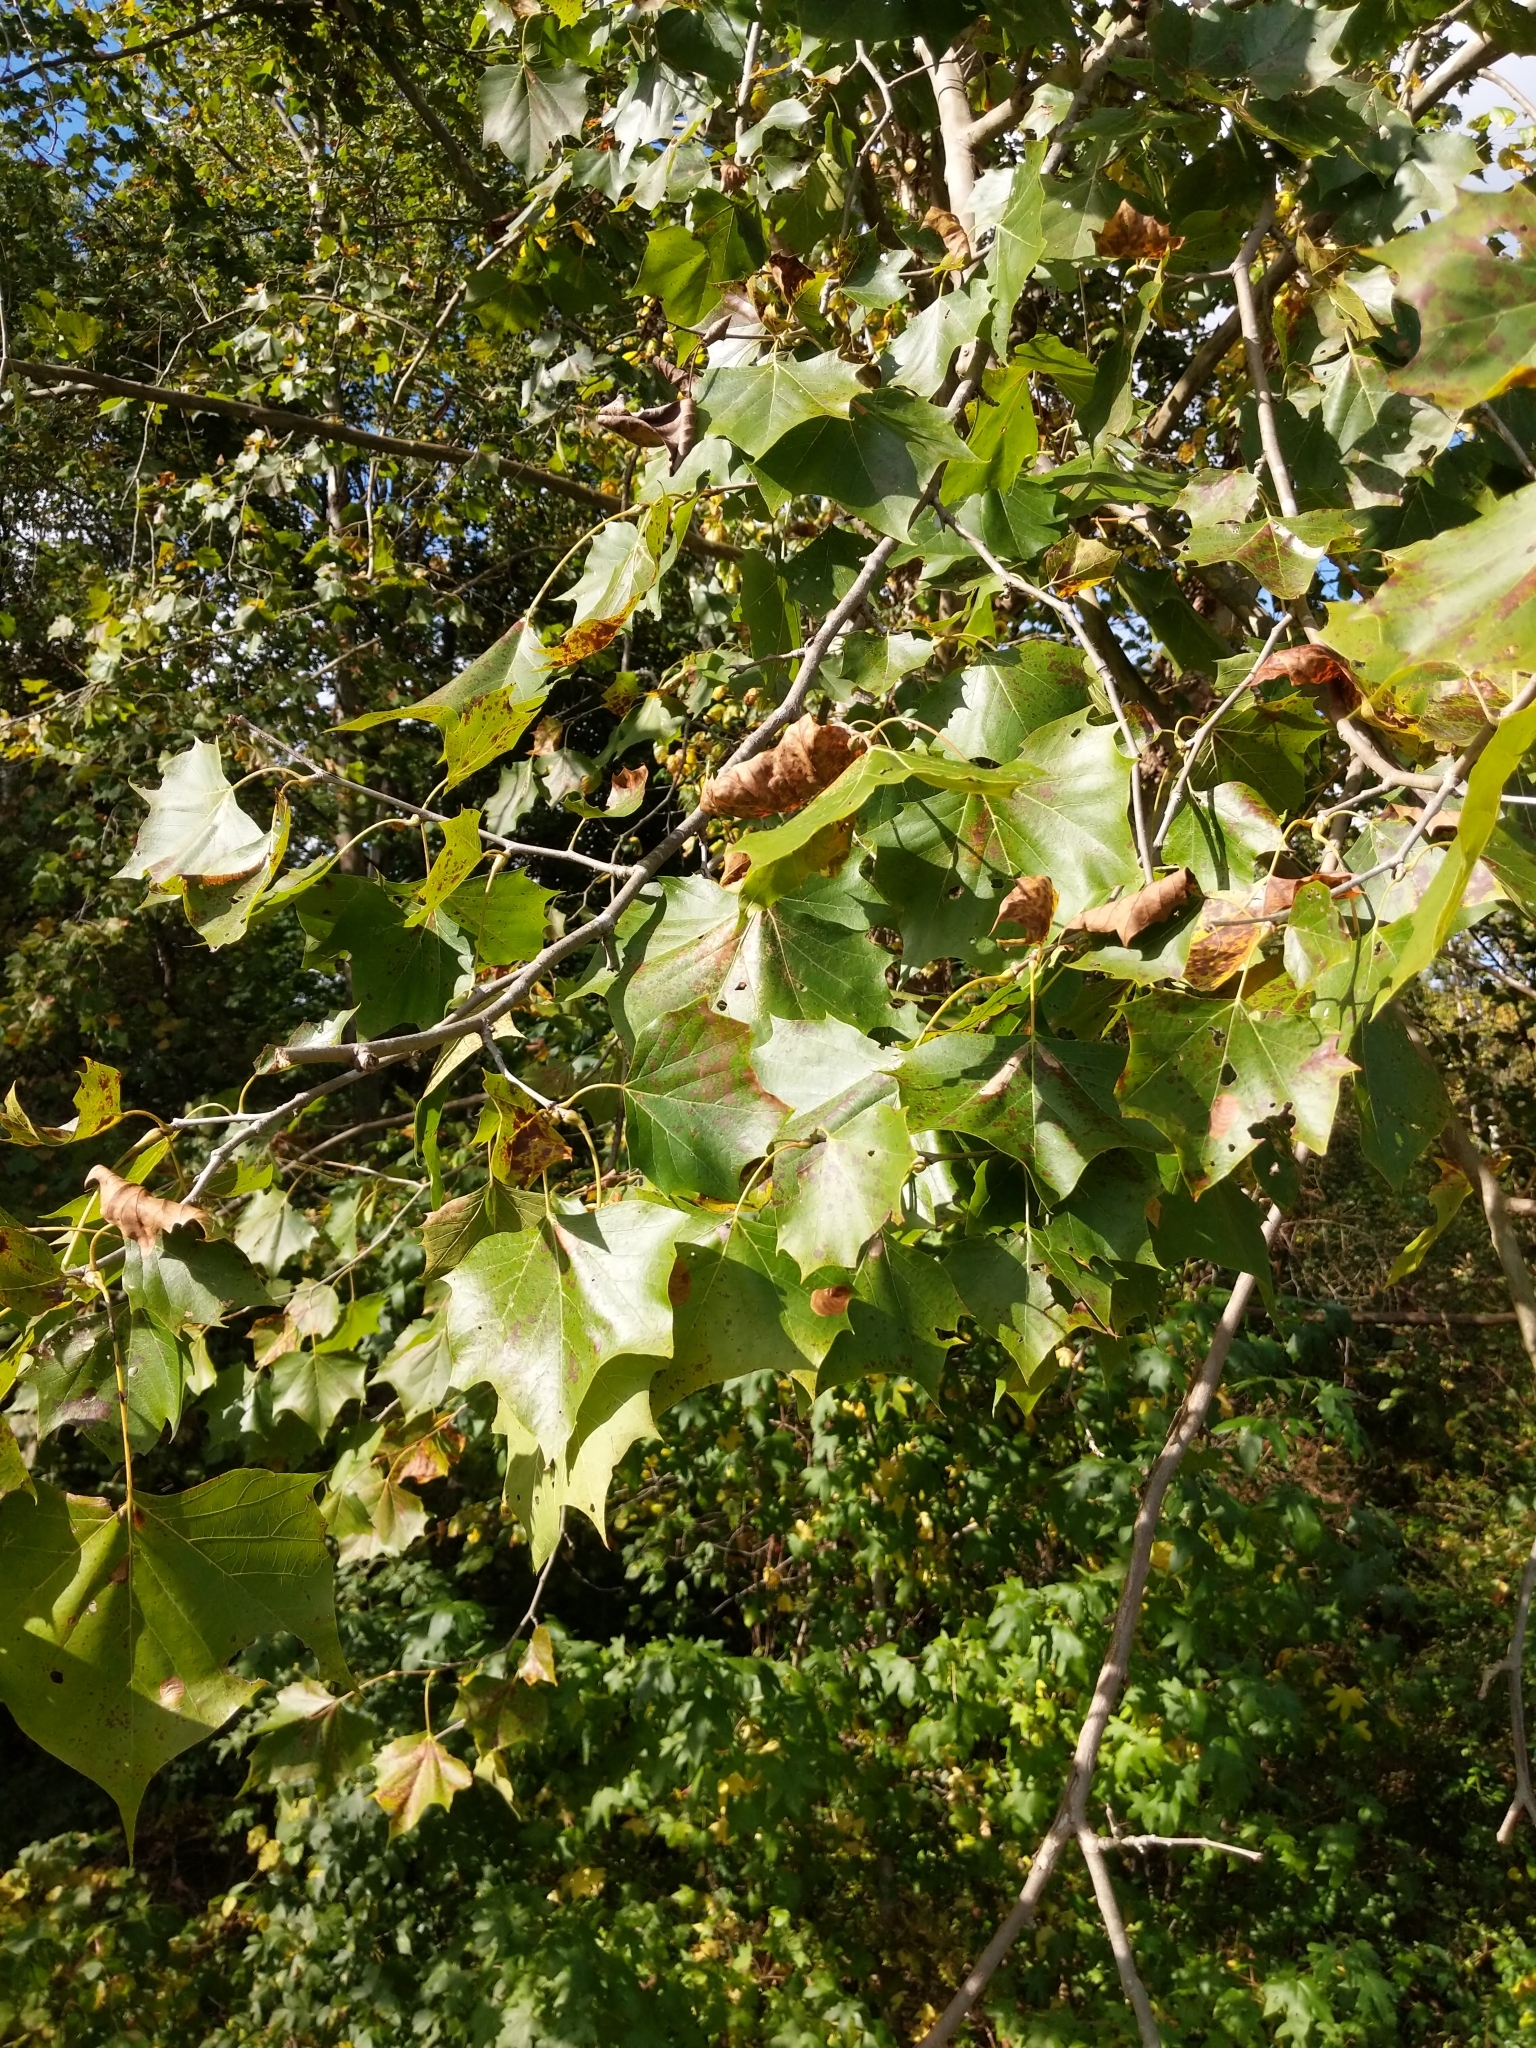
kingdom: Plantae
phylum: Tracheophyta
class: Magnoliopsida
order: Proteales
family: Platanaceae
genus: Platanus
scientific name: Platanus occidentalis
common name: American sycamore
